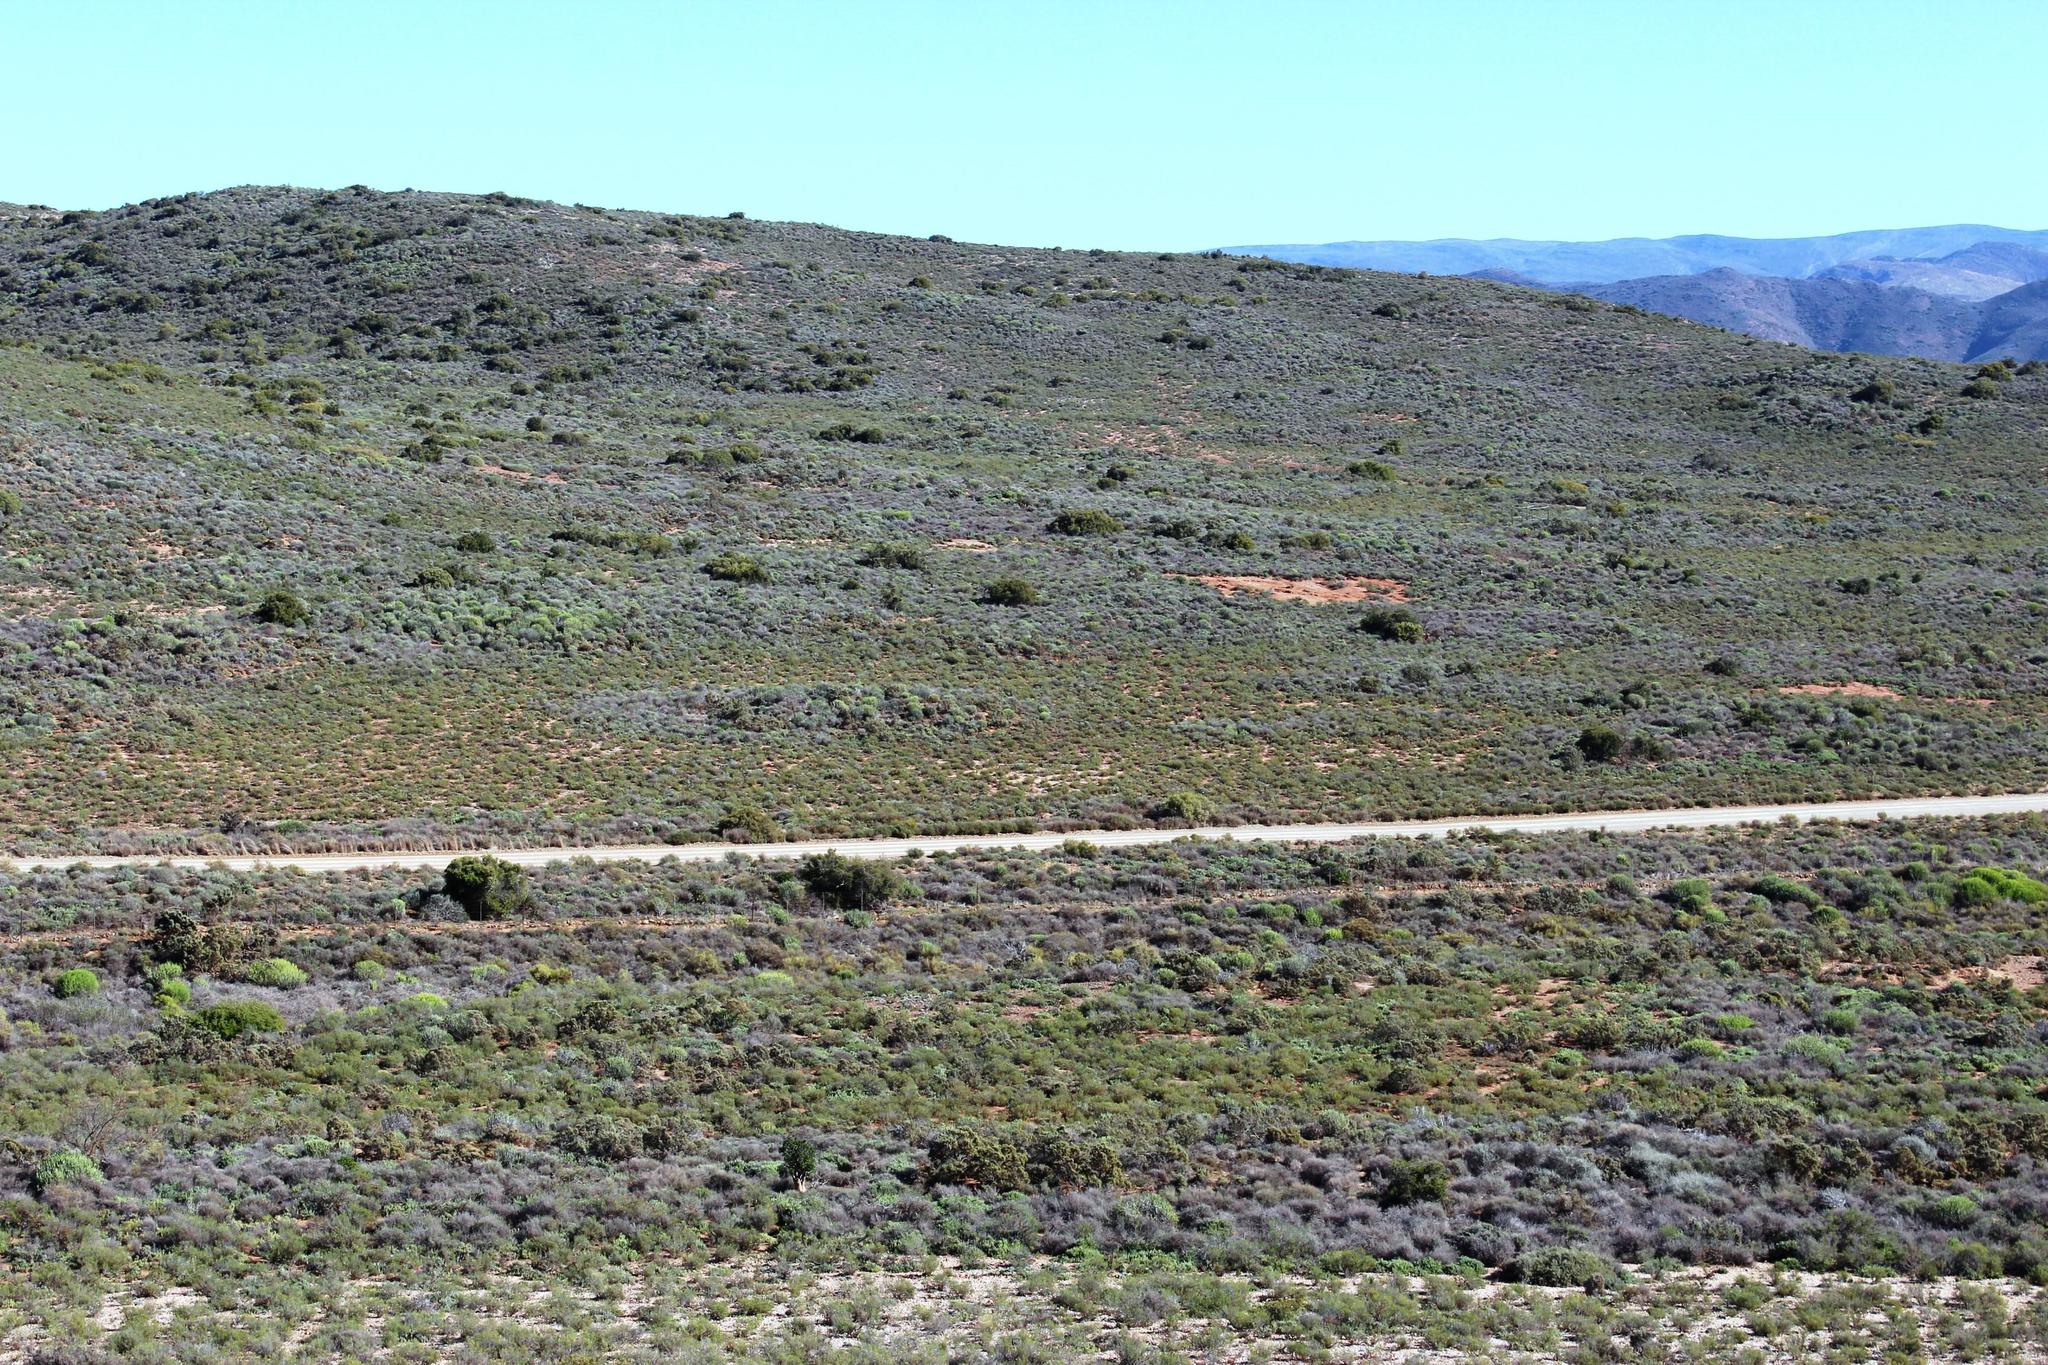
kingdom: Animalia
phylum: Arthropoda
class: Insecta
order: Blattodea
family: Hodotermitidae
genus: Microhodotermes
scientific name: Microhodotermes viator
